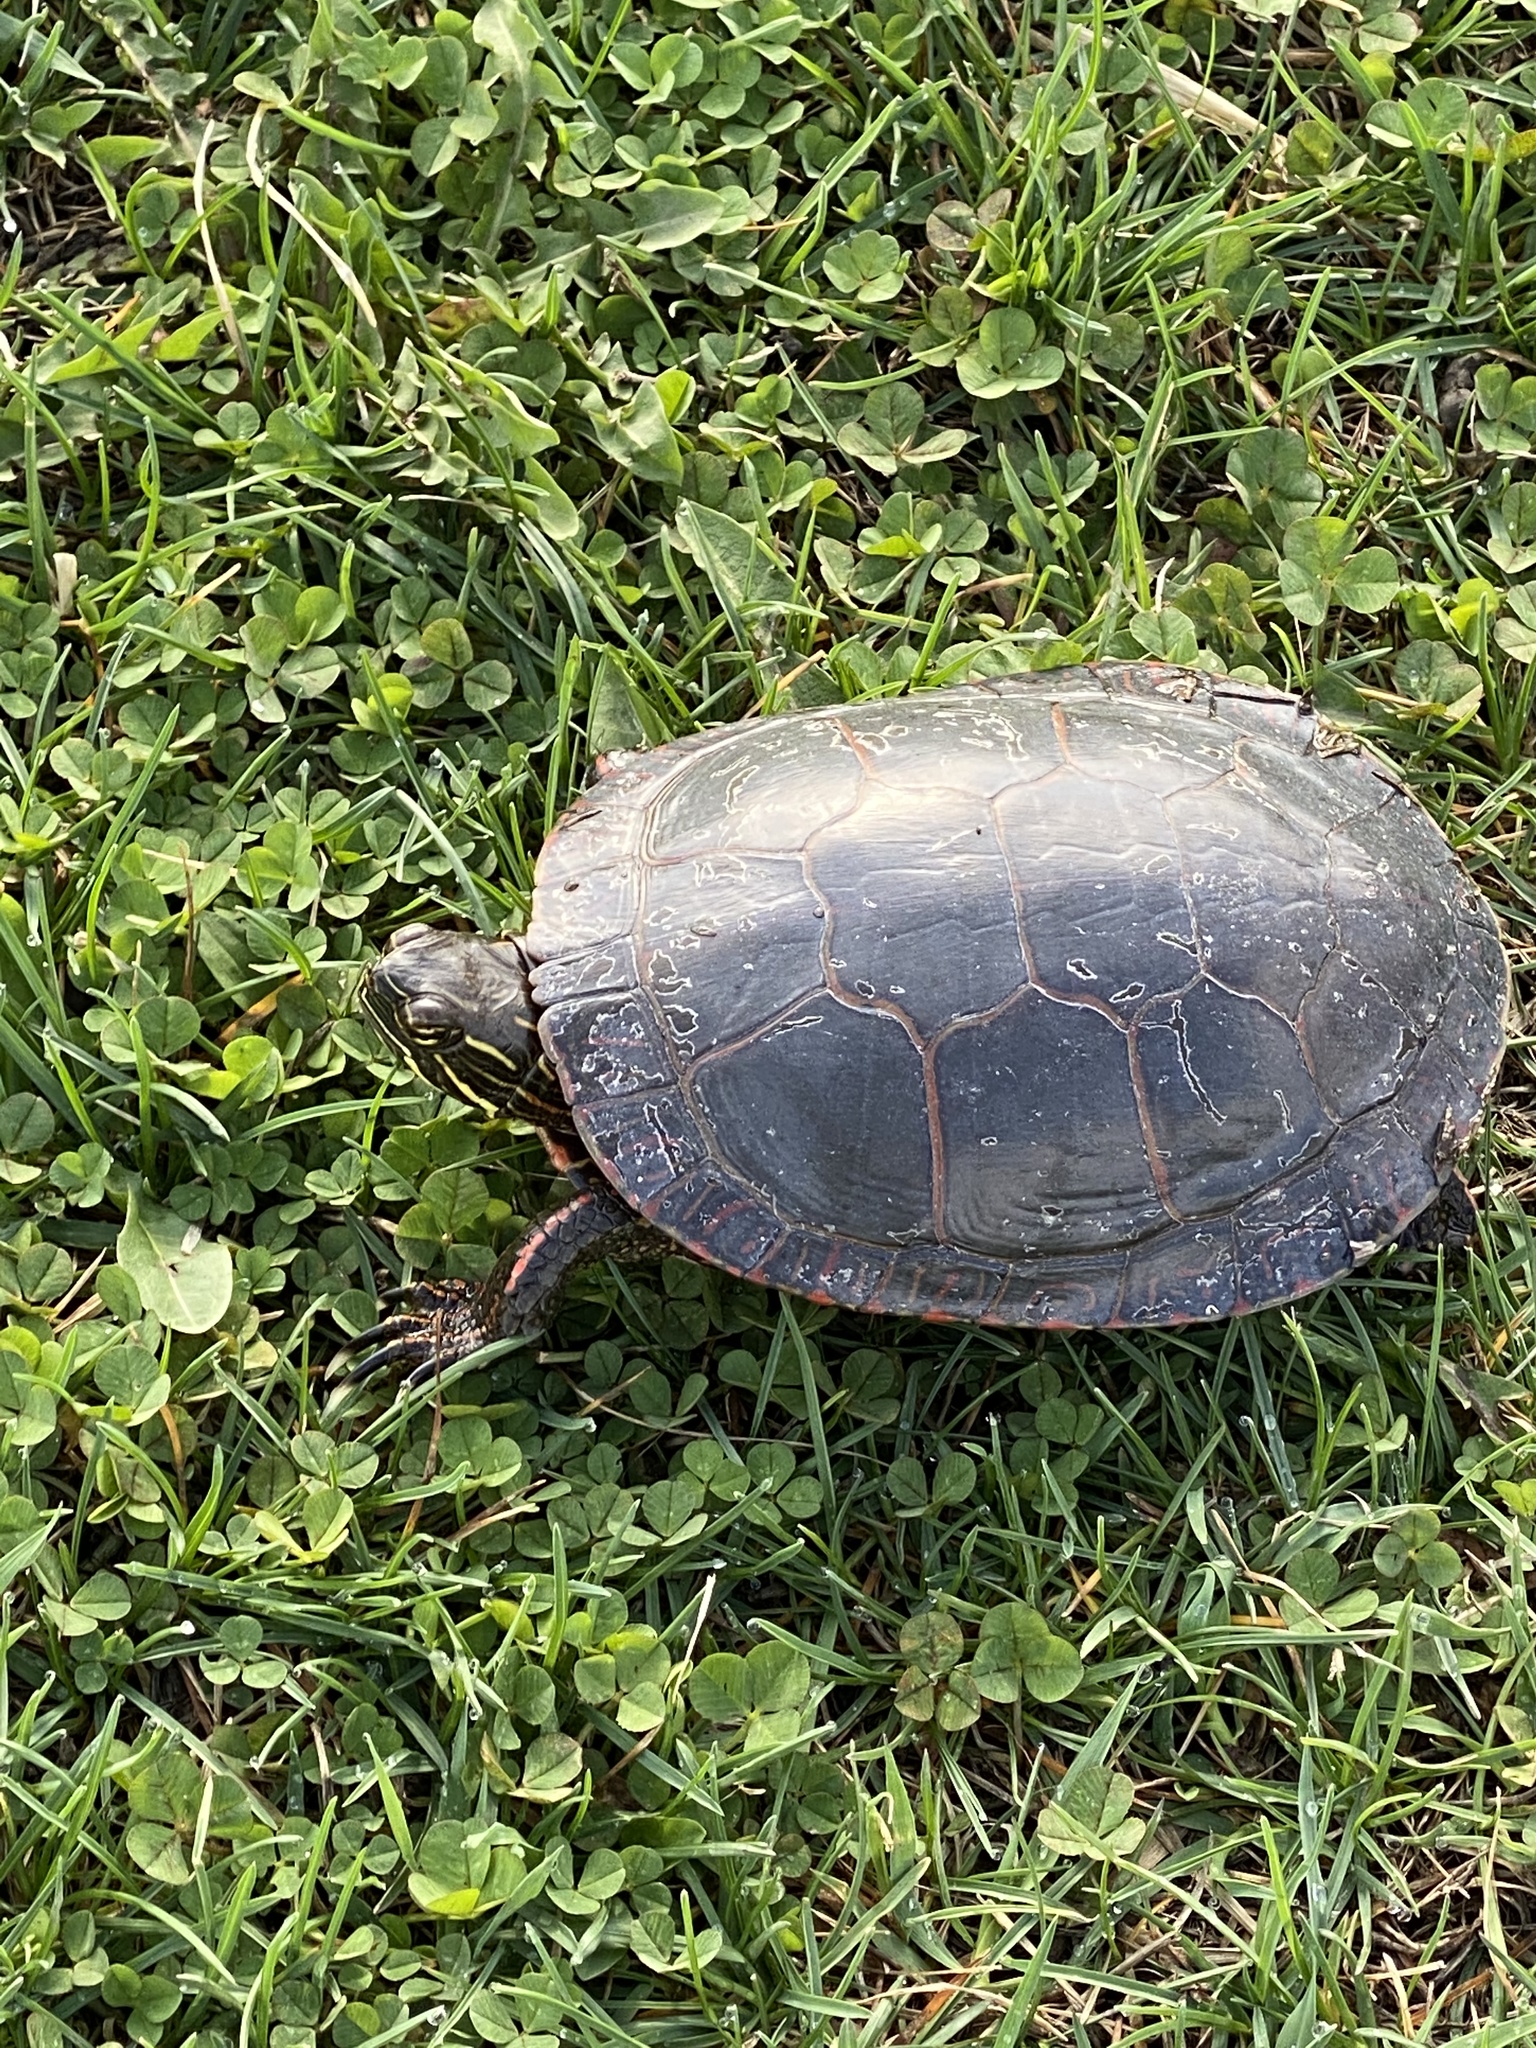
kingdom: Animalia
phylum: Chordata
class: Testudines
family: Emydidae
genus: Chrysemys
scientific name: Chrysemys picta
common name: Painted turtle
